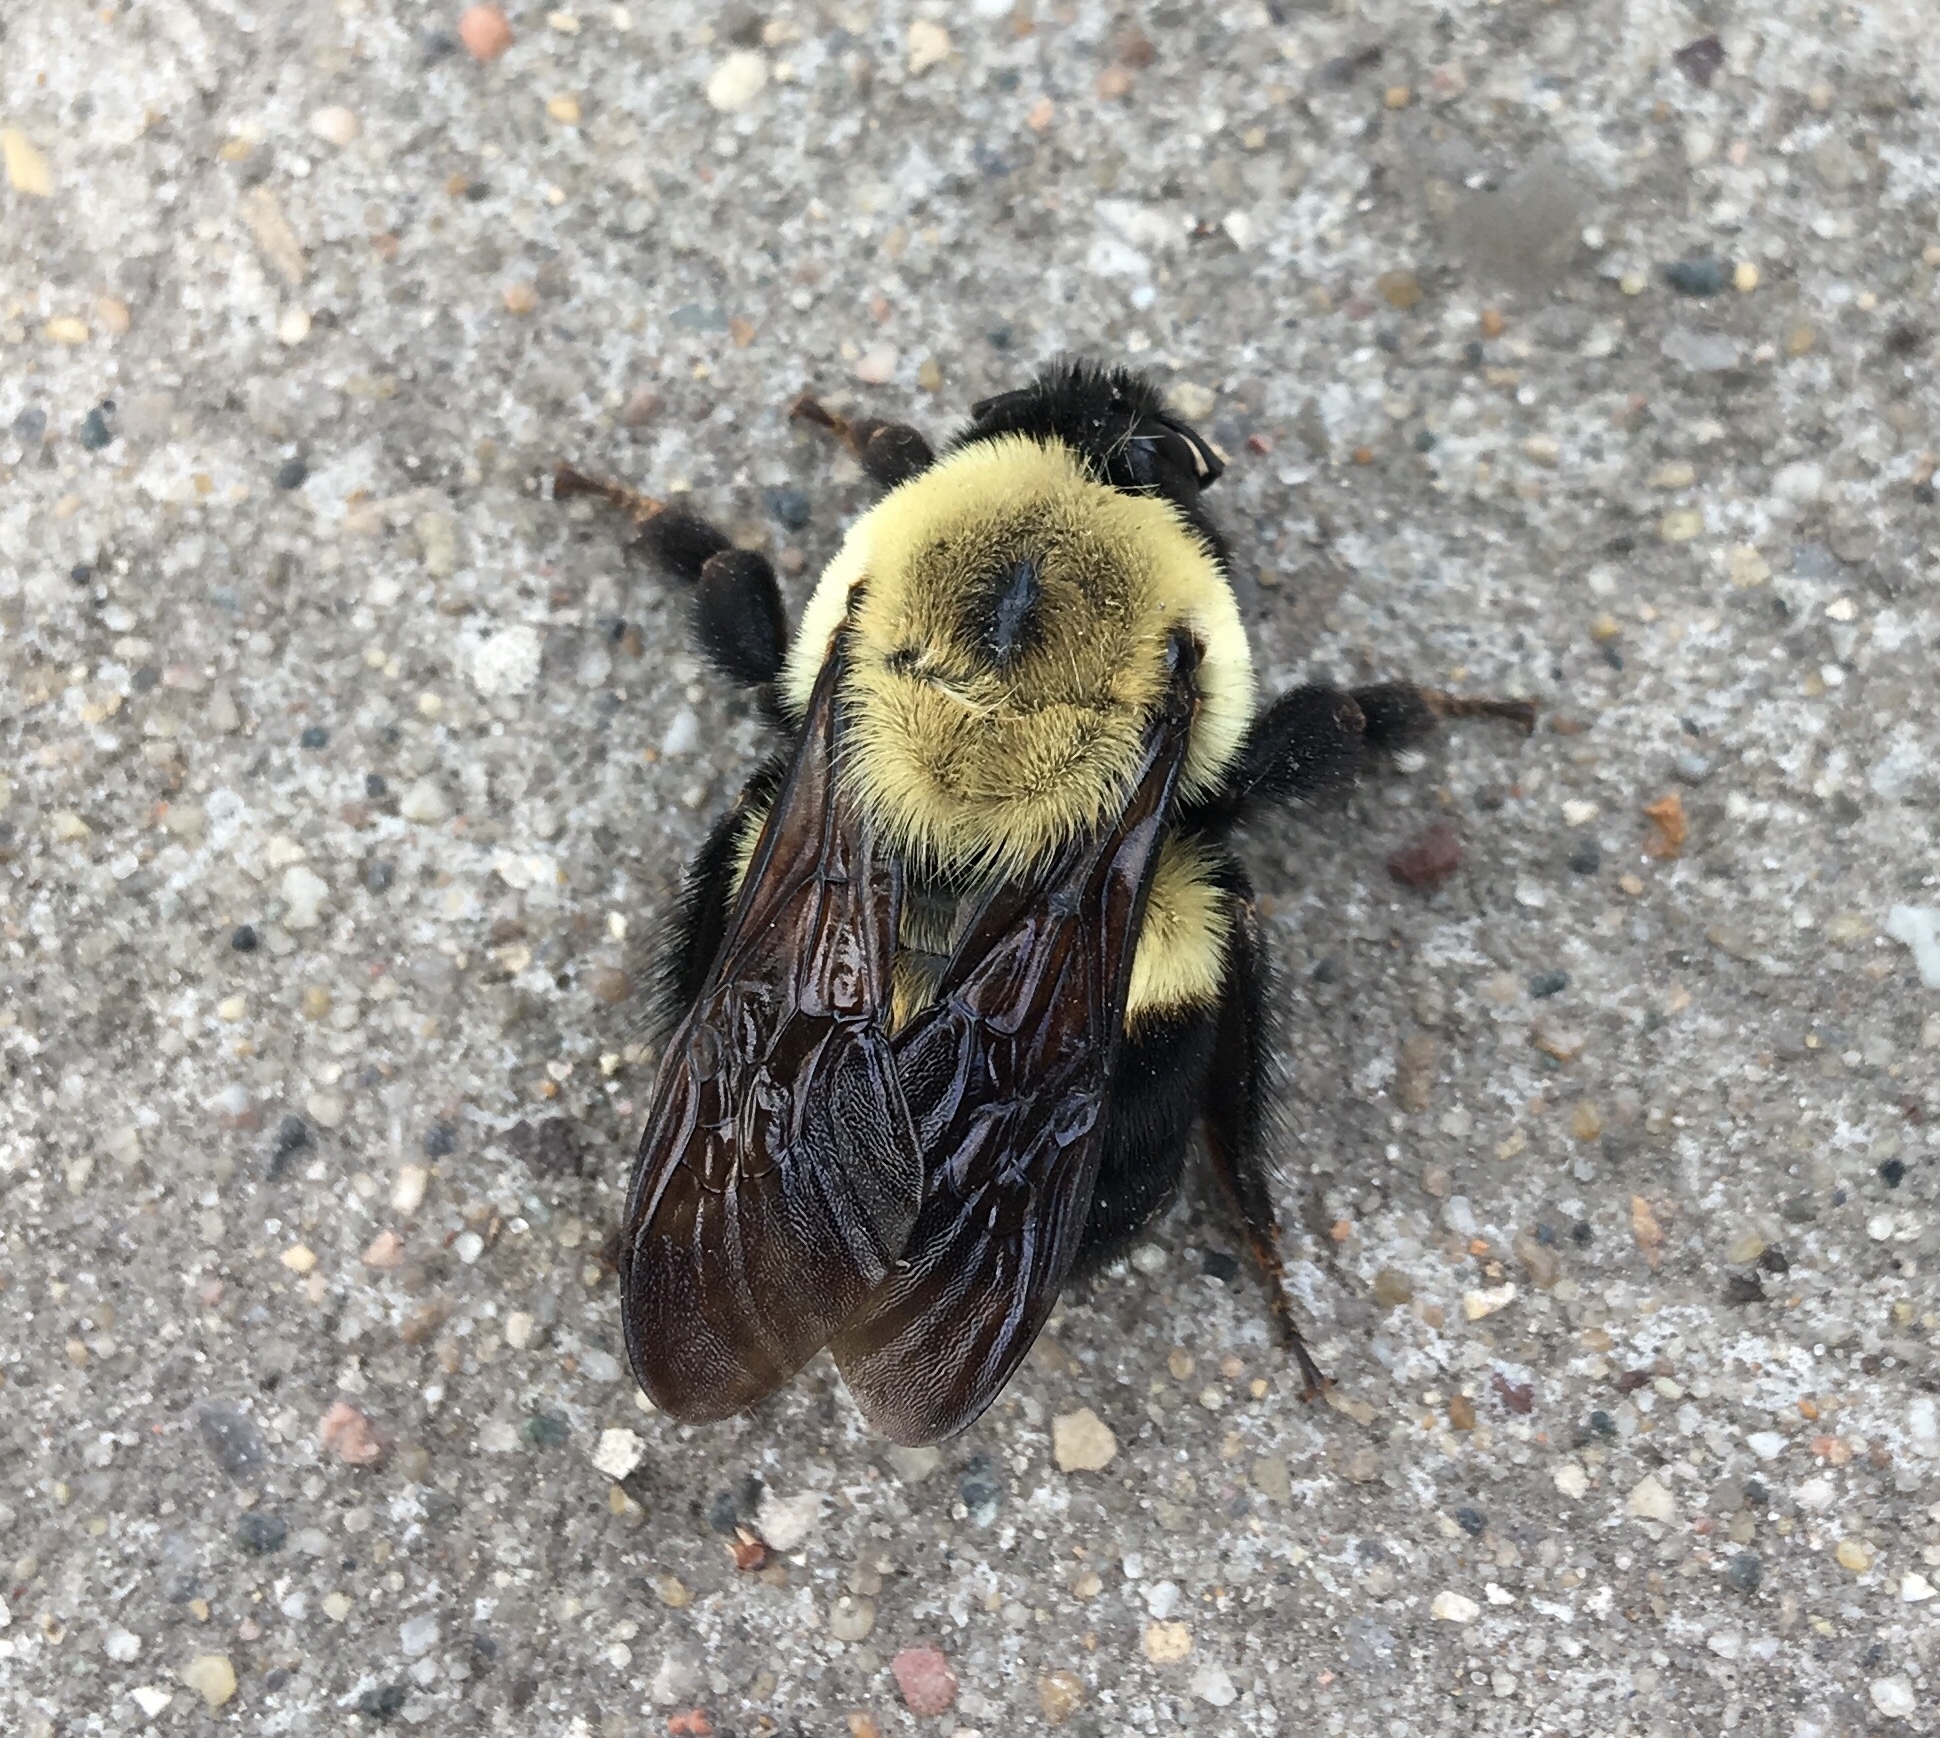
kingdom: Animalia
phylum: Arthropoda
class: Insecta
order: Hymenoptera
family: Apidae
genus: Bombus
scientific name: Bombus griseocollis
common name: Brown-belted bumble bee
